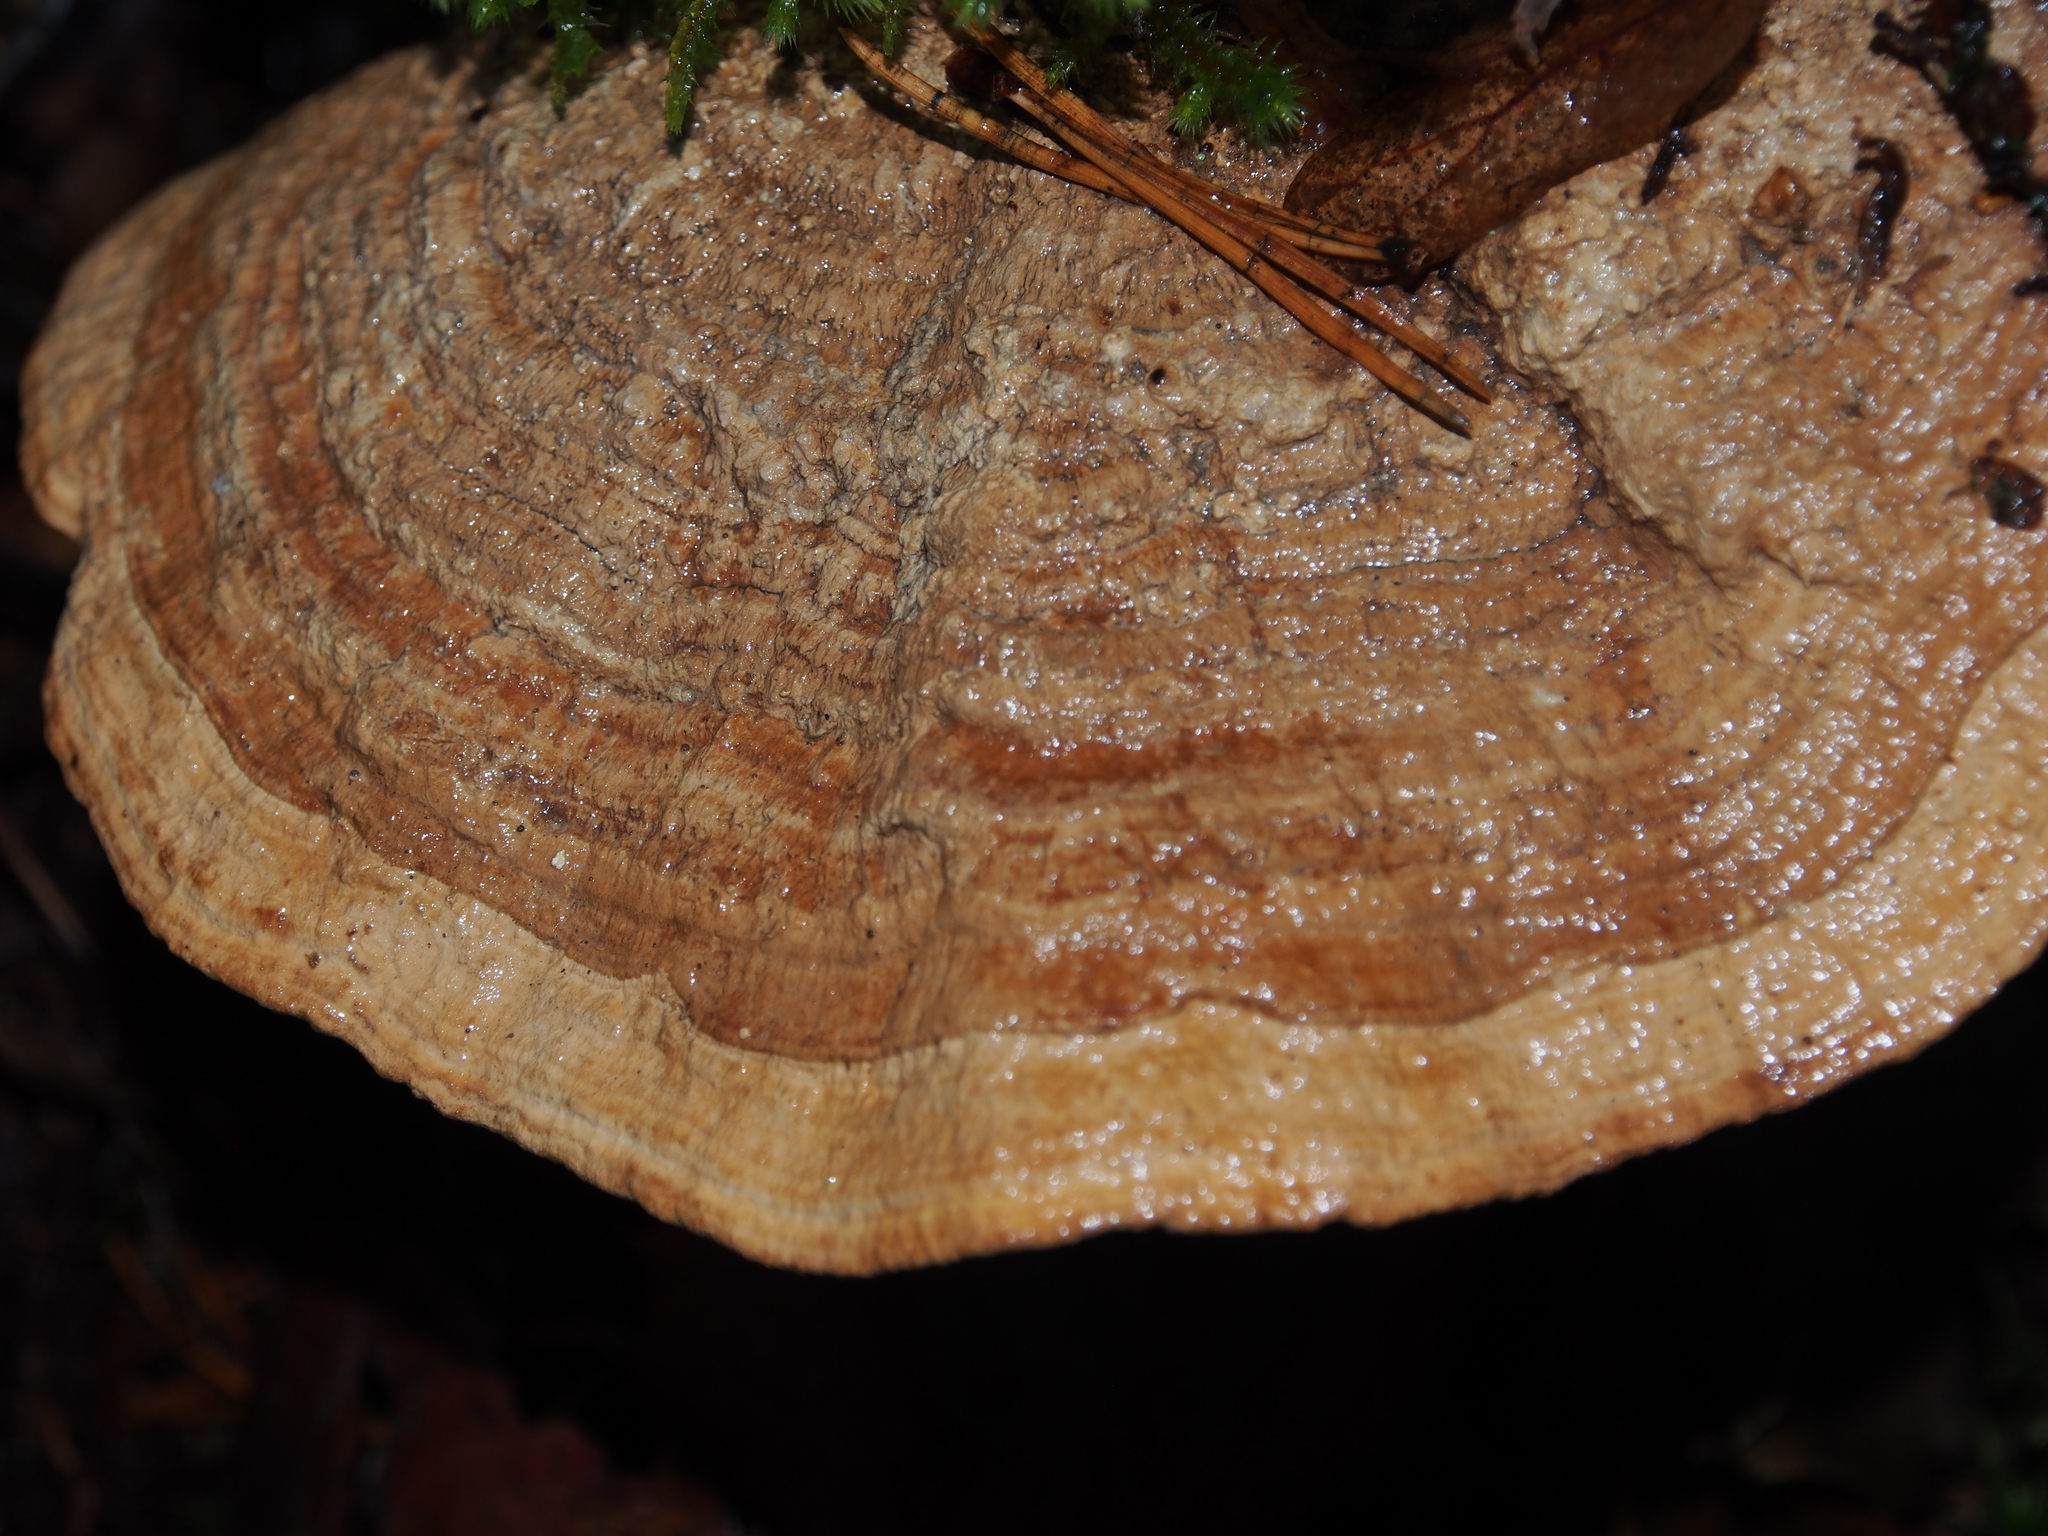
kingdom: Fungi
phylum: Basidiomycota
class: Agaricomycetes
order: Polyporales
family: Fomitopsidaceae
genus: Fomitopsis
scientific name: Fomitopsis
